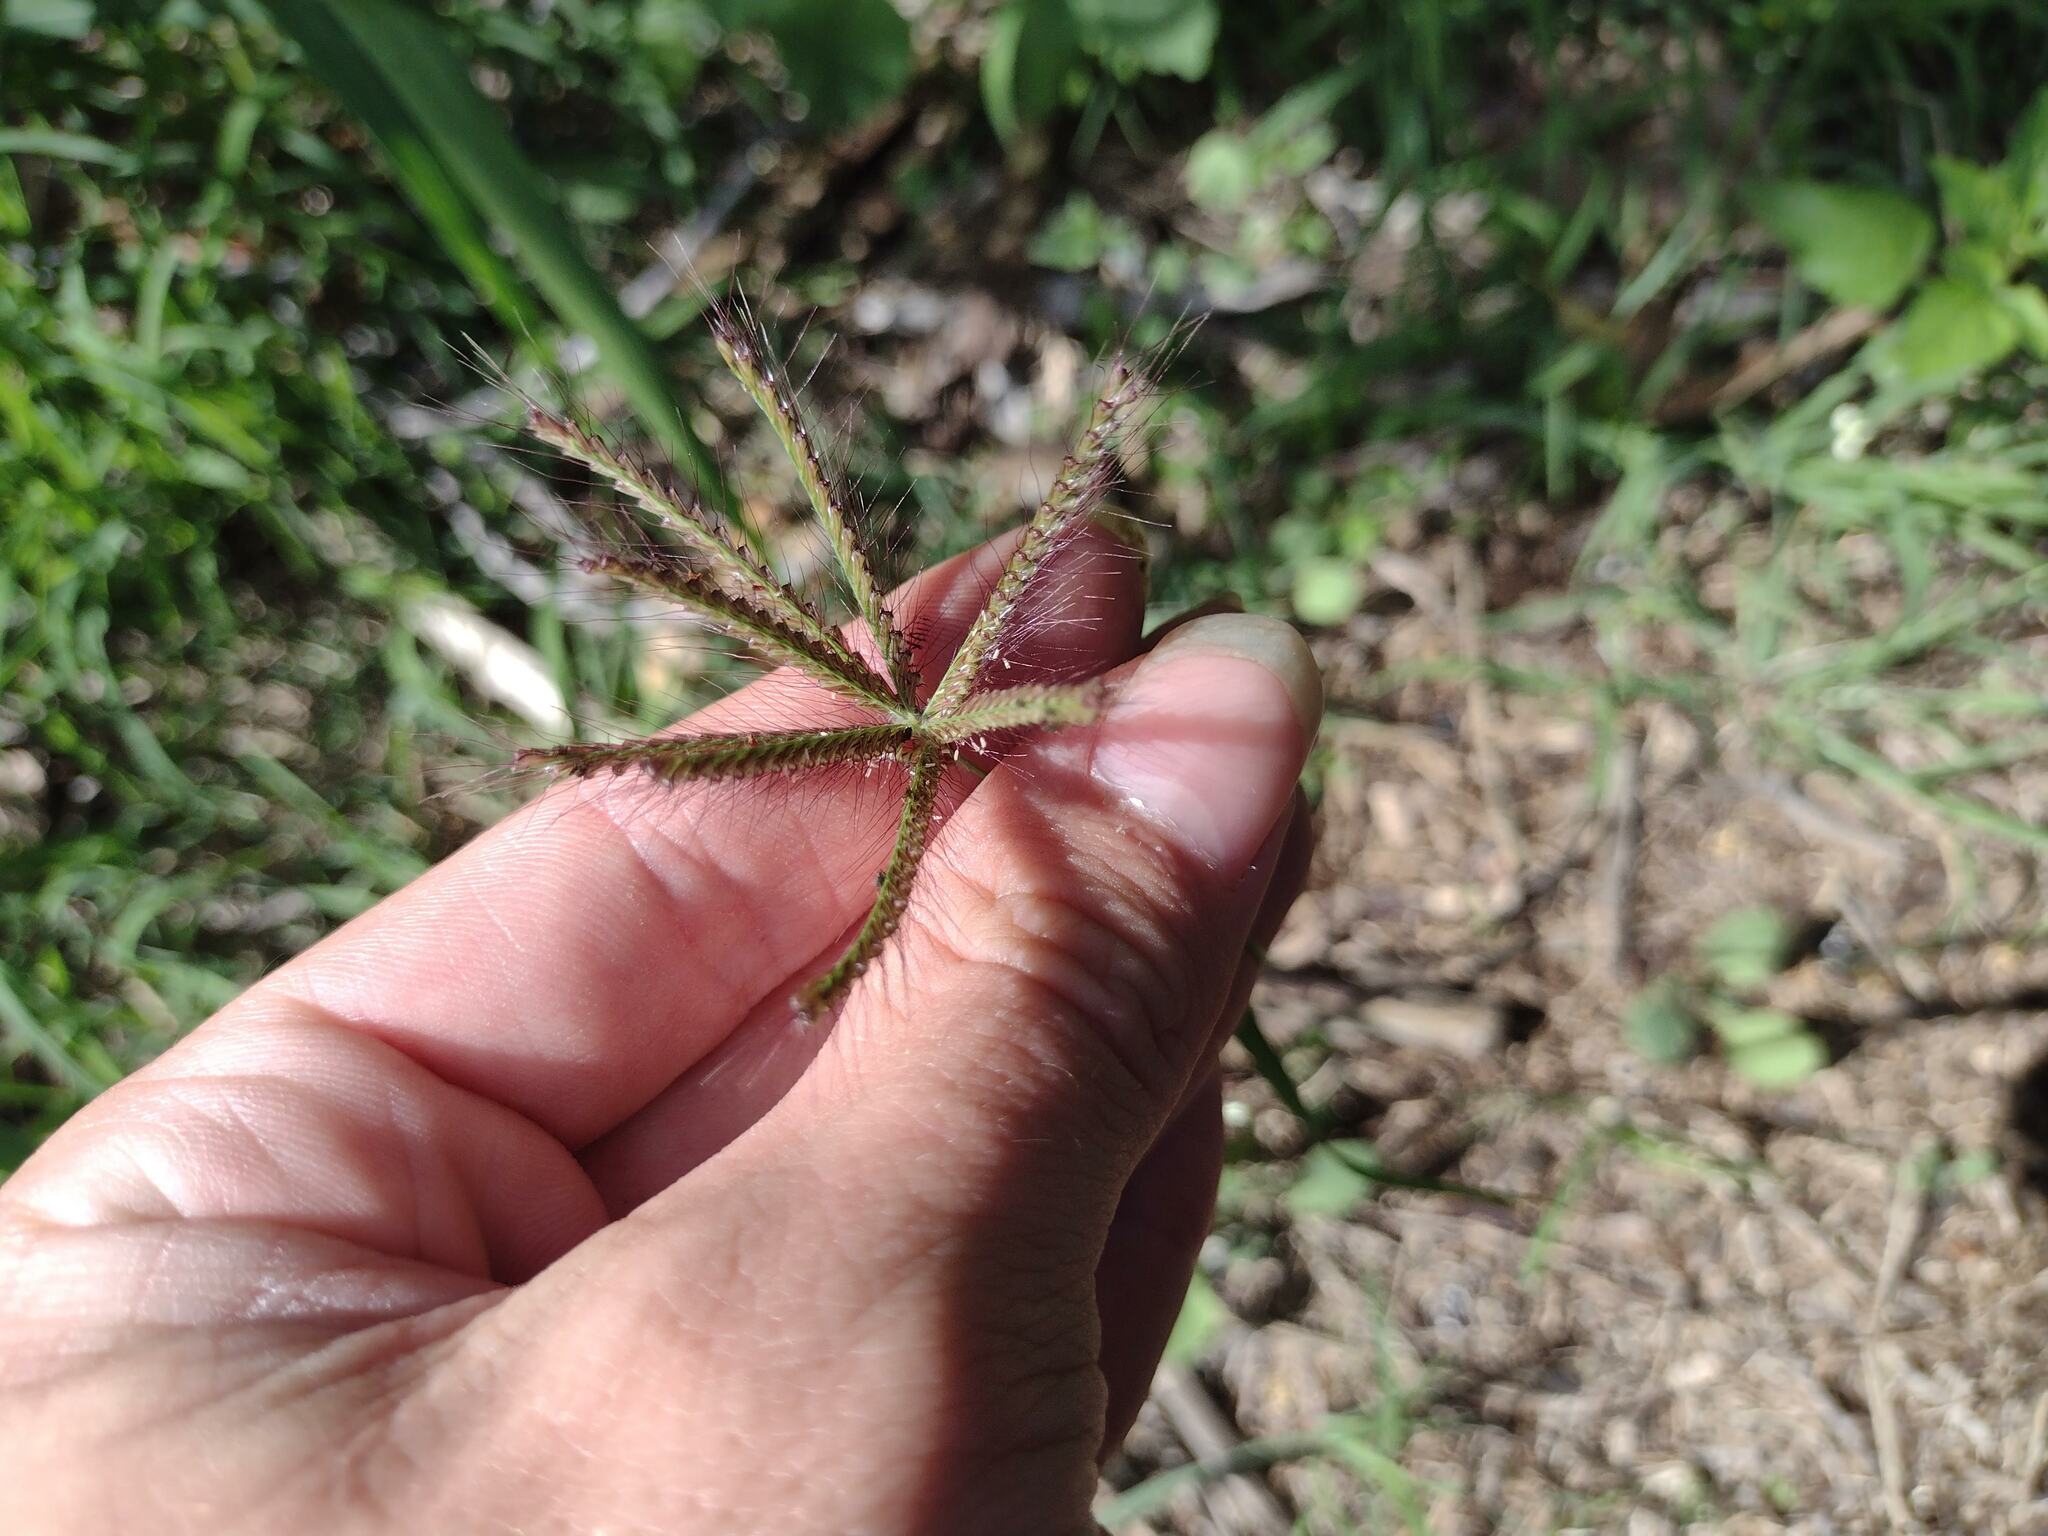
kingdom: Plantae
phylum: Tracheophyta
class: Liliopsida
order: Poales
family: Poaceae
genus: Chloris
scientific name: Chloris barbata
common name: Swollen fingergrass
